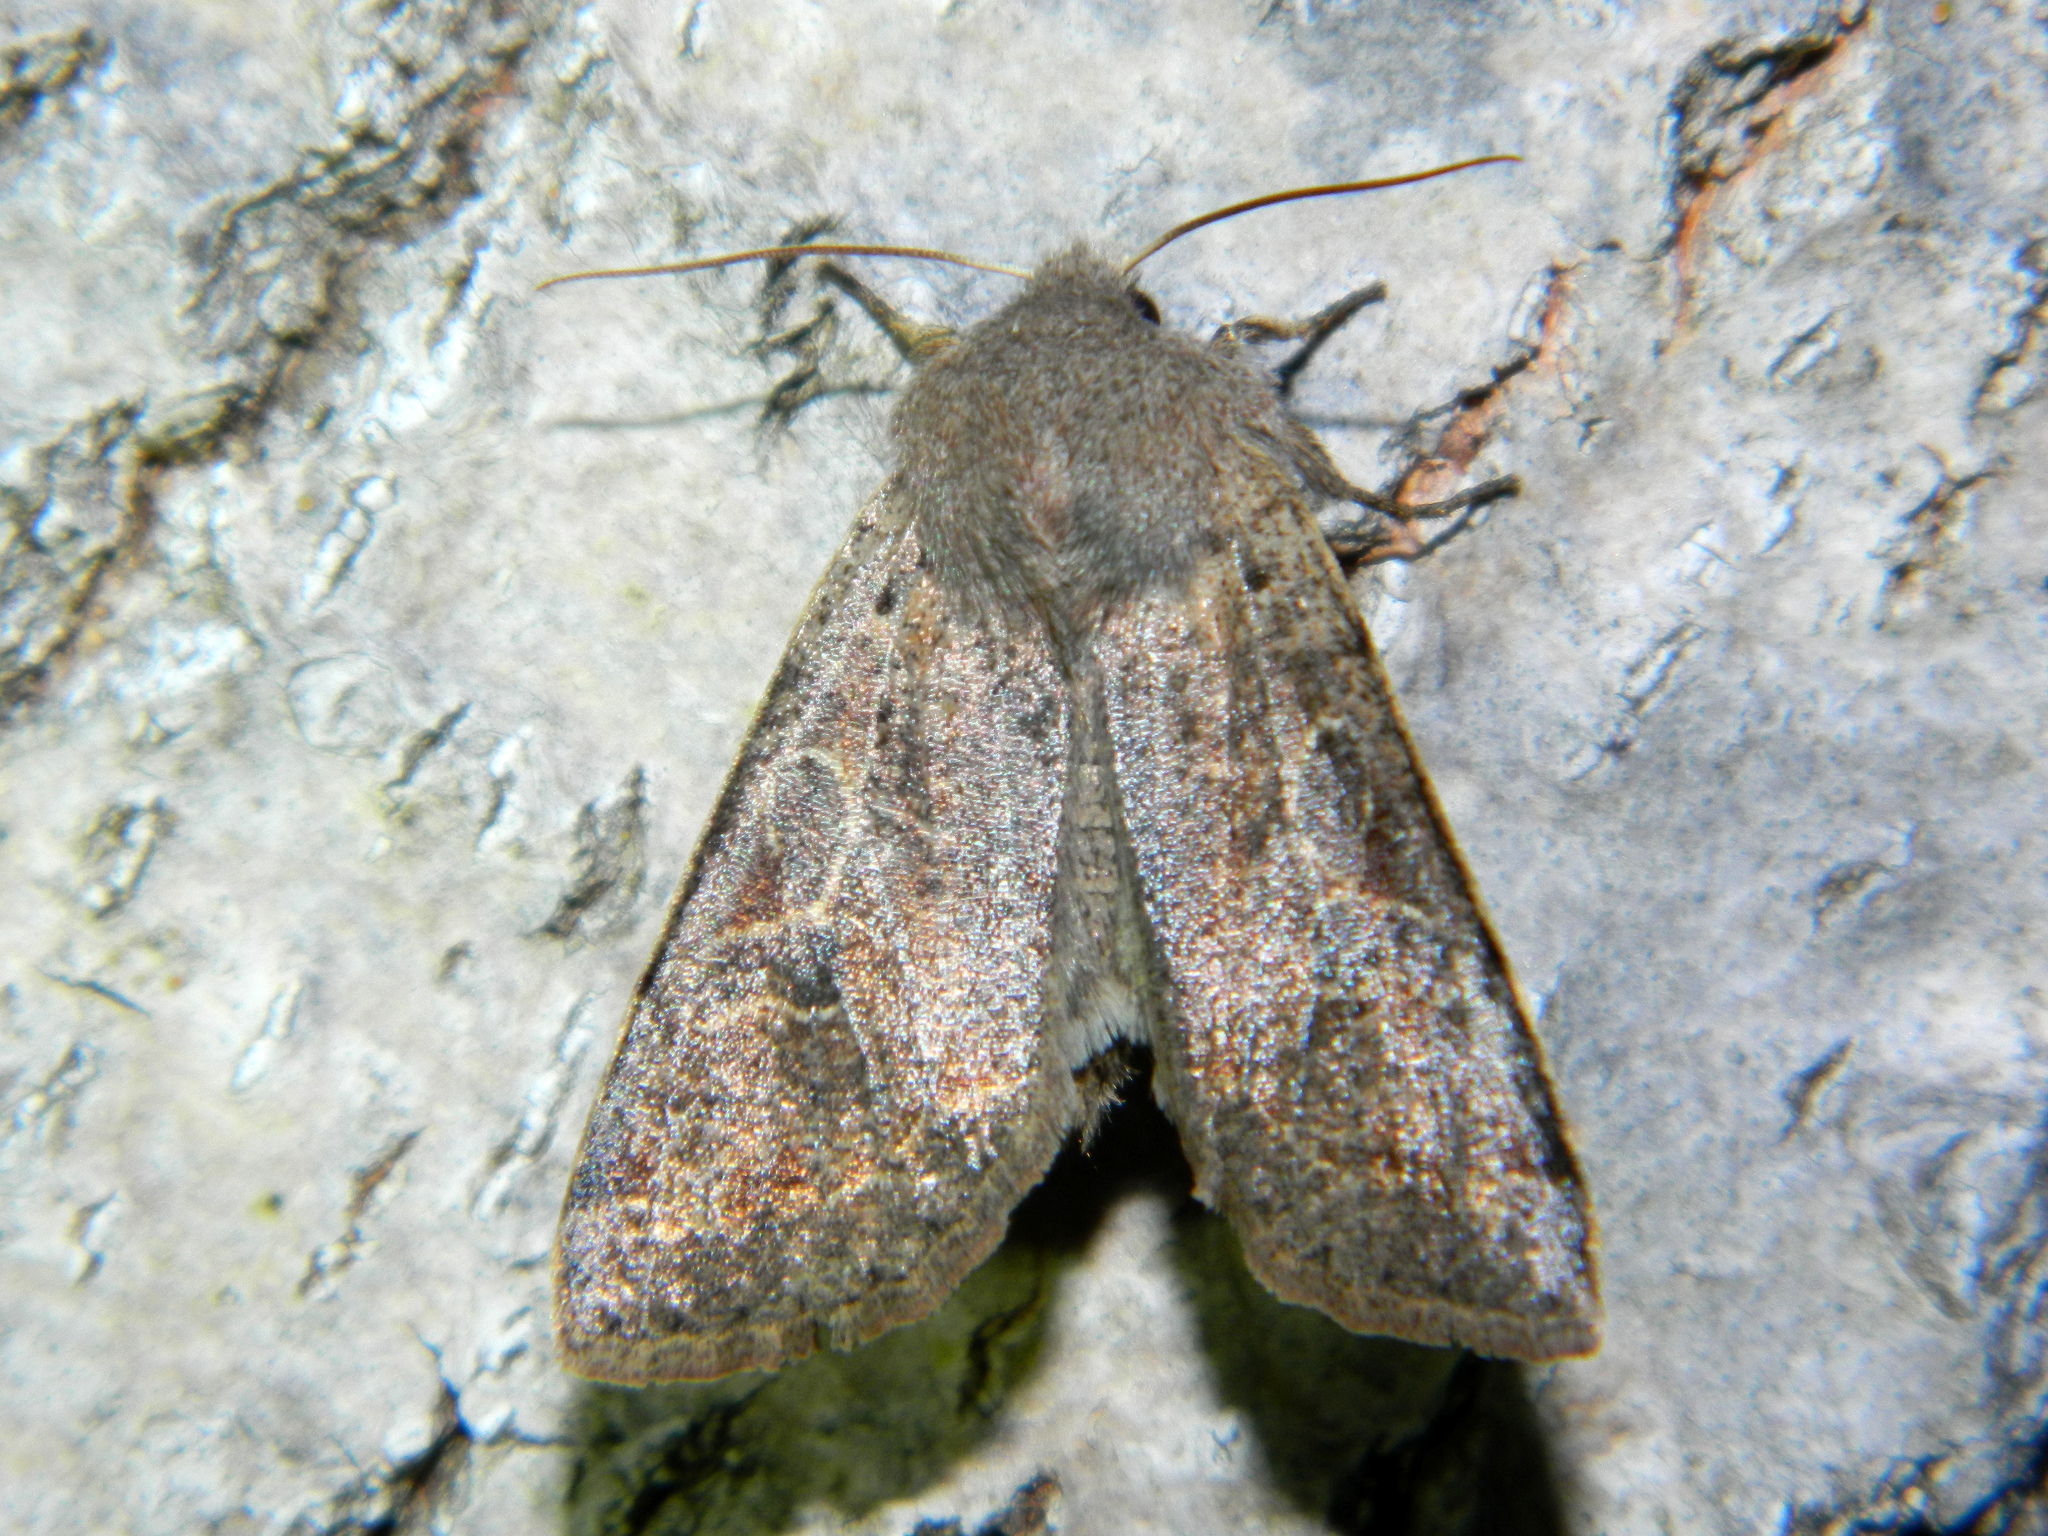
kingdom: Animalia
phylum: Arthropoda
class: Insecta
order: Lepidoptera
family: Noctuidae
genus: Orthosia
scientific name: Orthosia hibisci
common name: Green fruitworm
